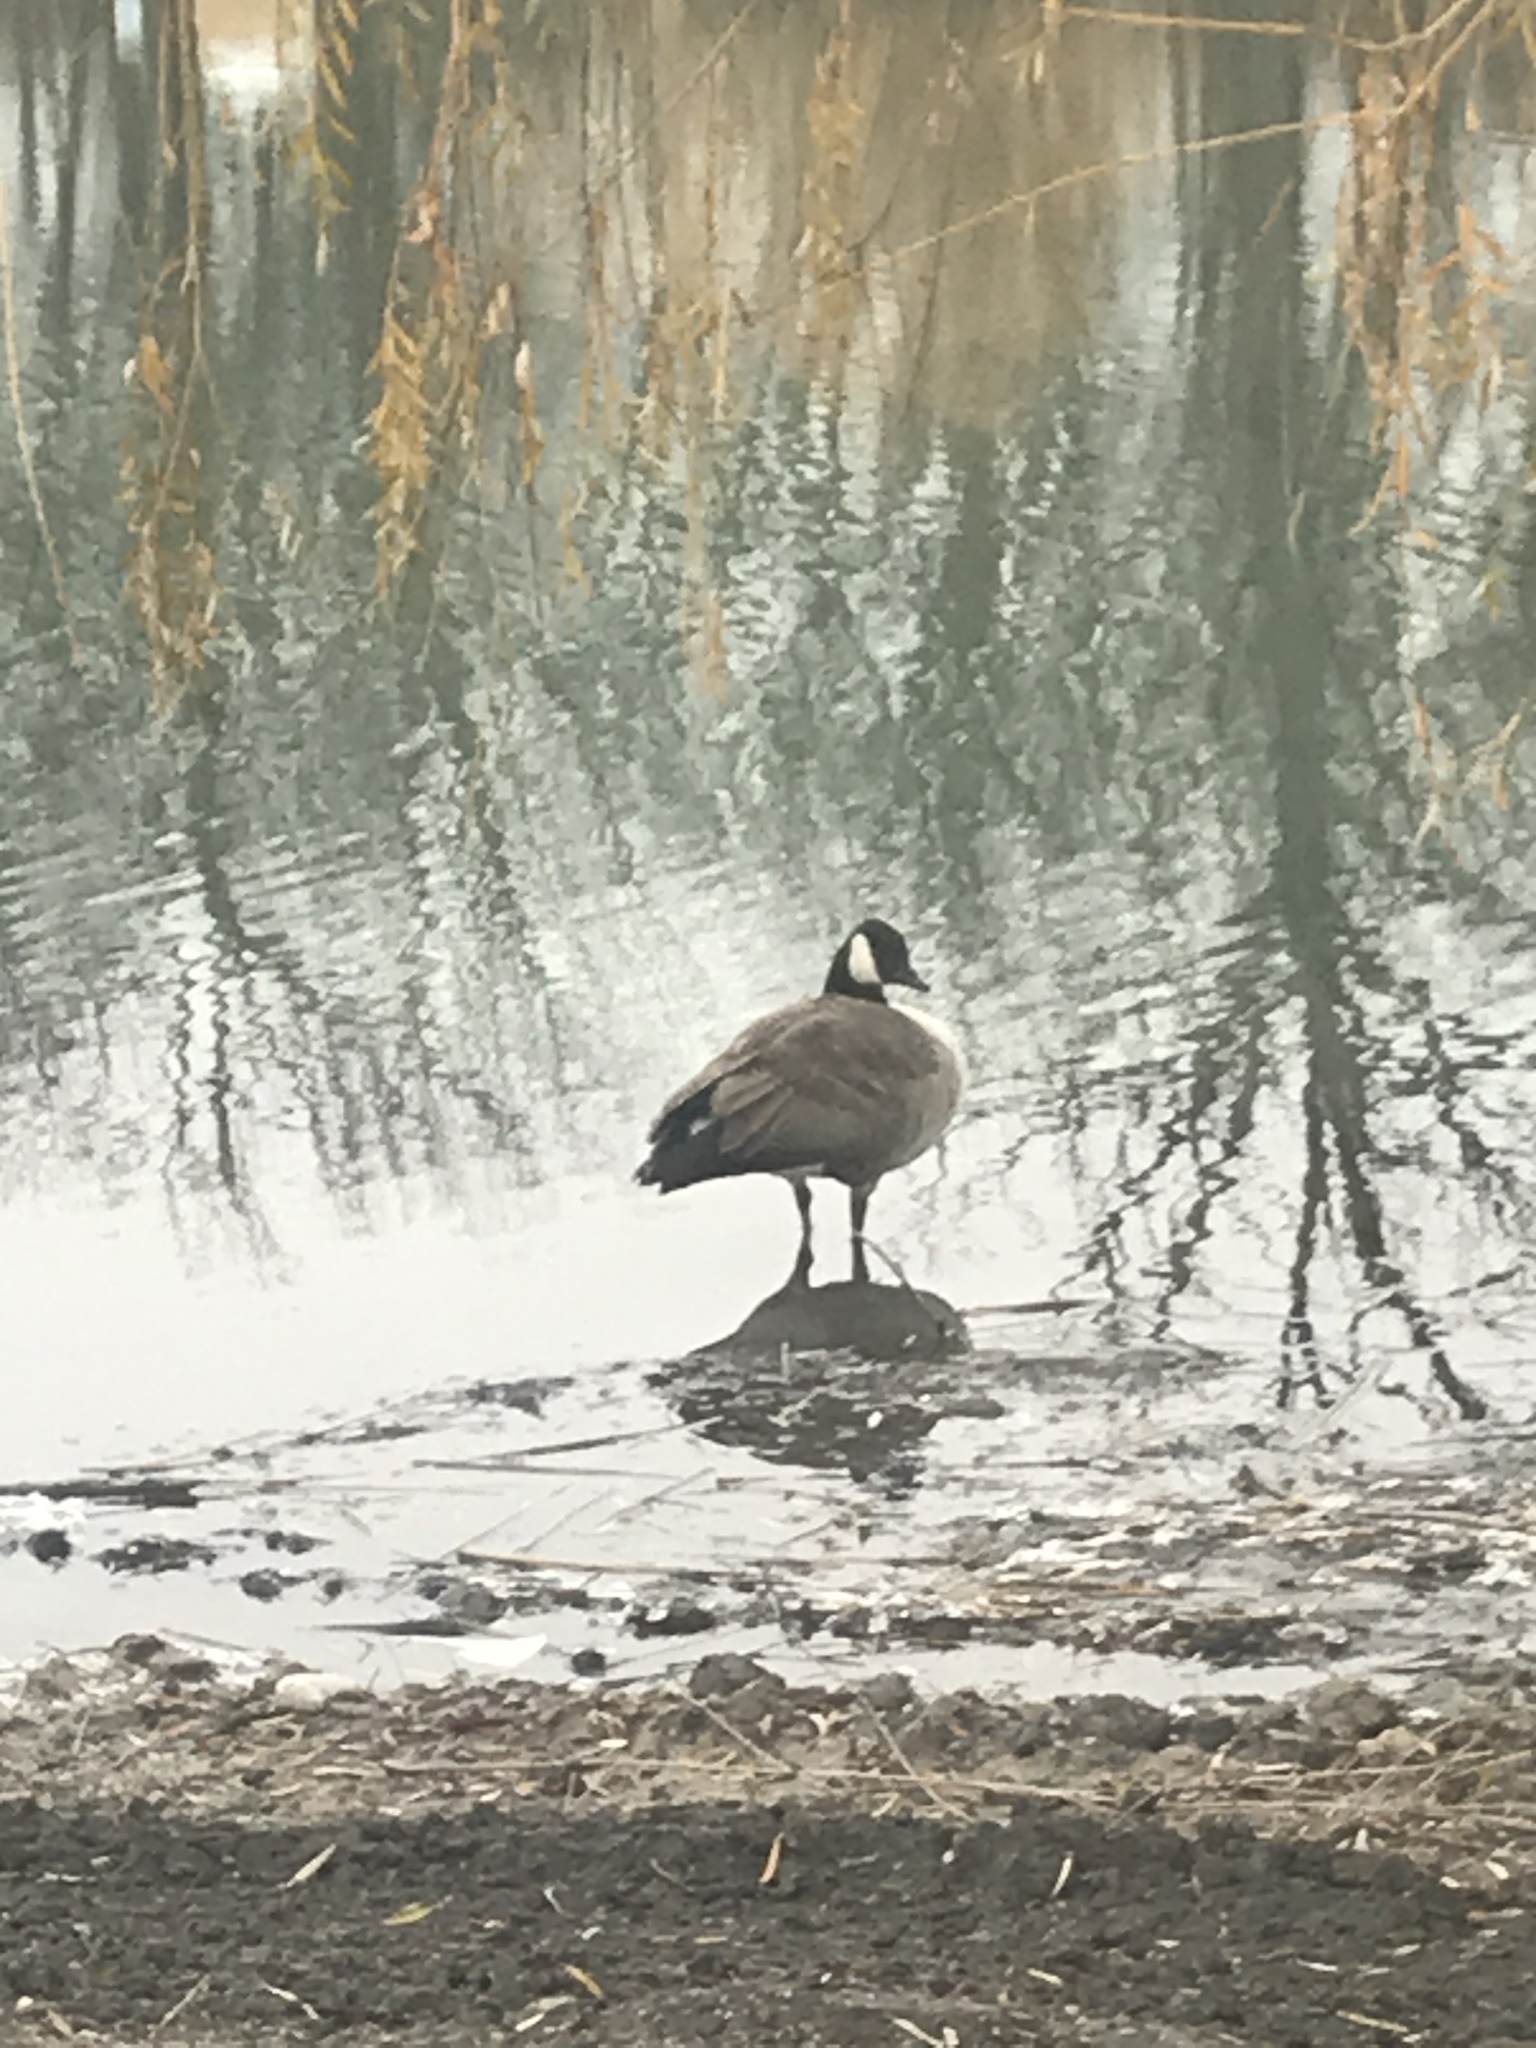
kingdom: Animalia
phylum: Chordata
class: Aves
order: Anseriformes
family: Anatidae
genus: Branta
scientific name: Branta canadensis
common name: Canada goose
